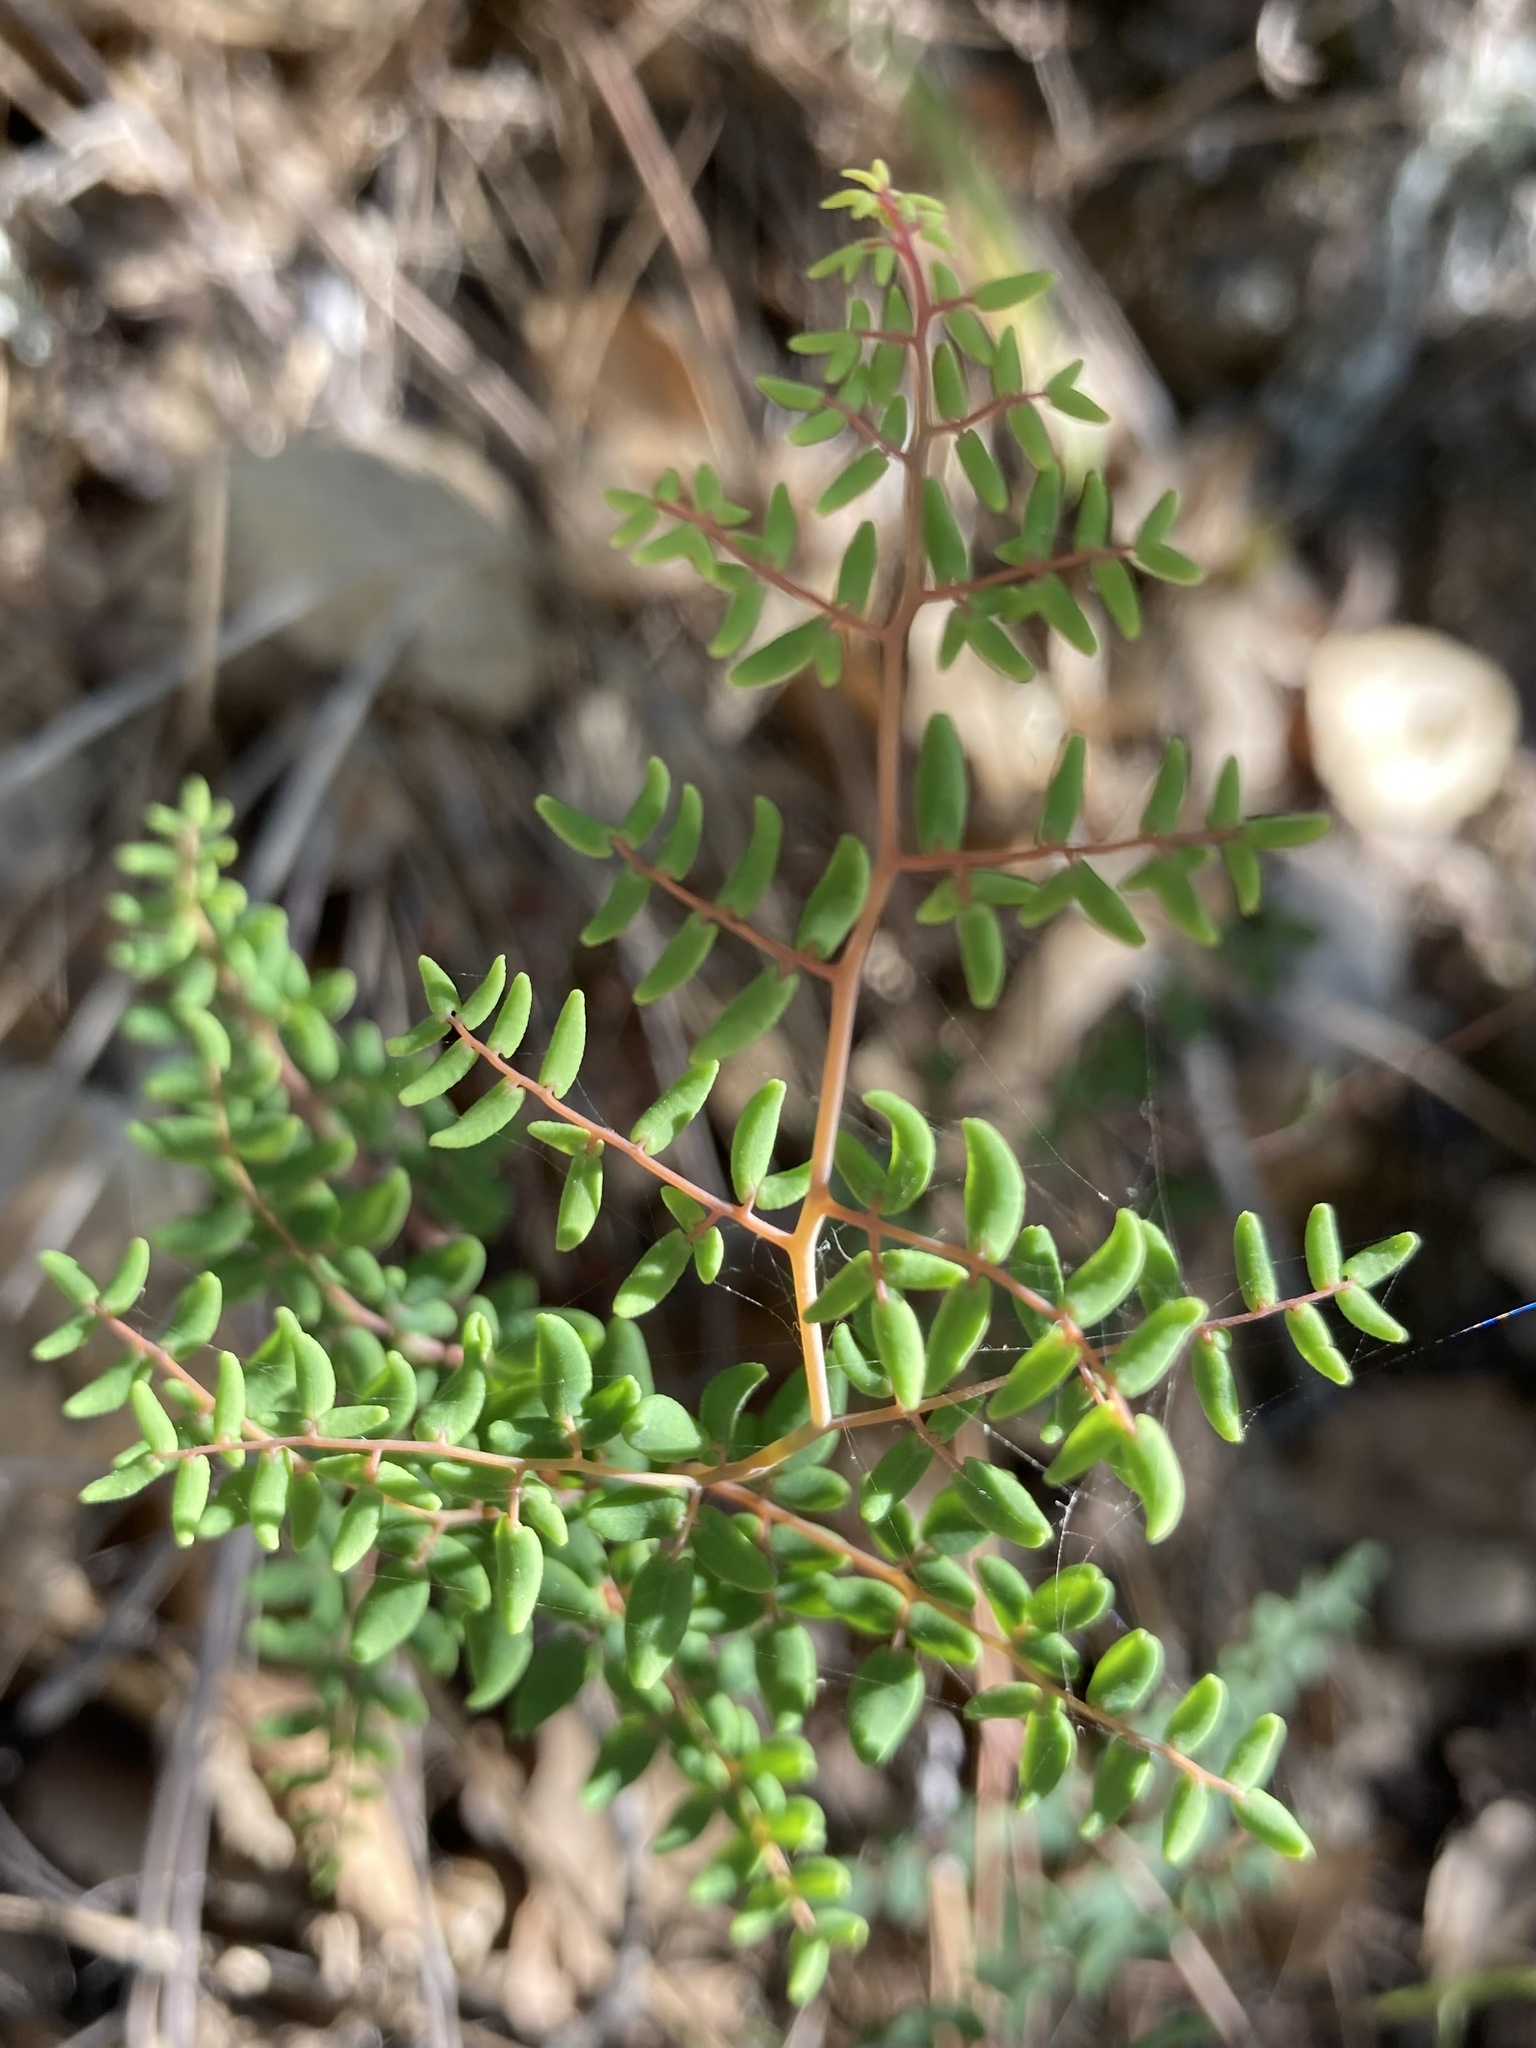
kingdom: Plantae
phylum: Tracheophyta
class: Polypodiopsida
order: Polypodiales
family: Pteridaceae
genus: Pellaea
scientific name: Pellaea andromedifolia
